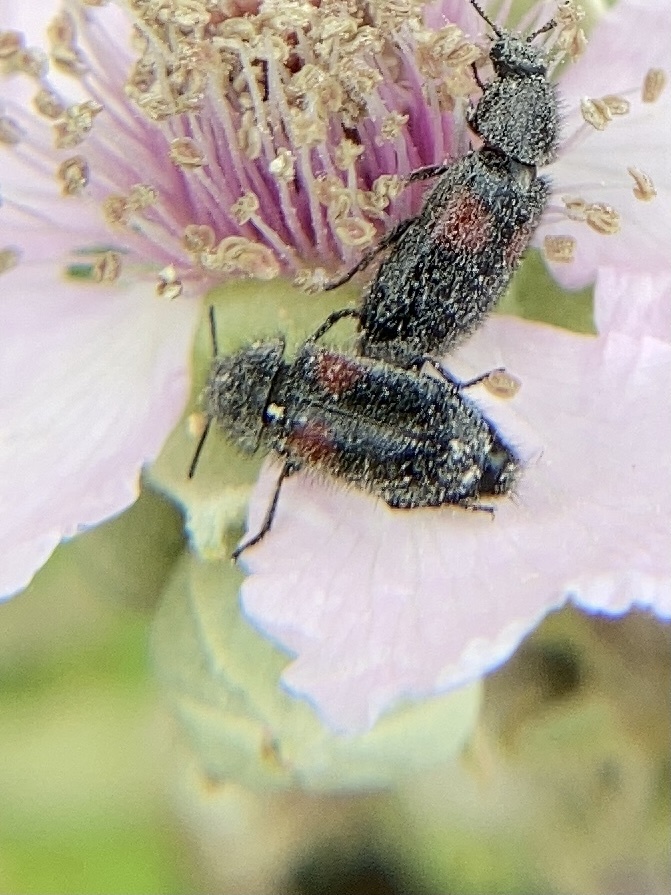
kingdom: Animalia
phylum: Arthropoda
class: Insecta
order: Coleoptera
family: Melyridae
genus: Divales
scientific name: Divales bipustulatus
